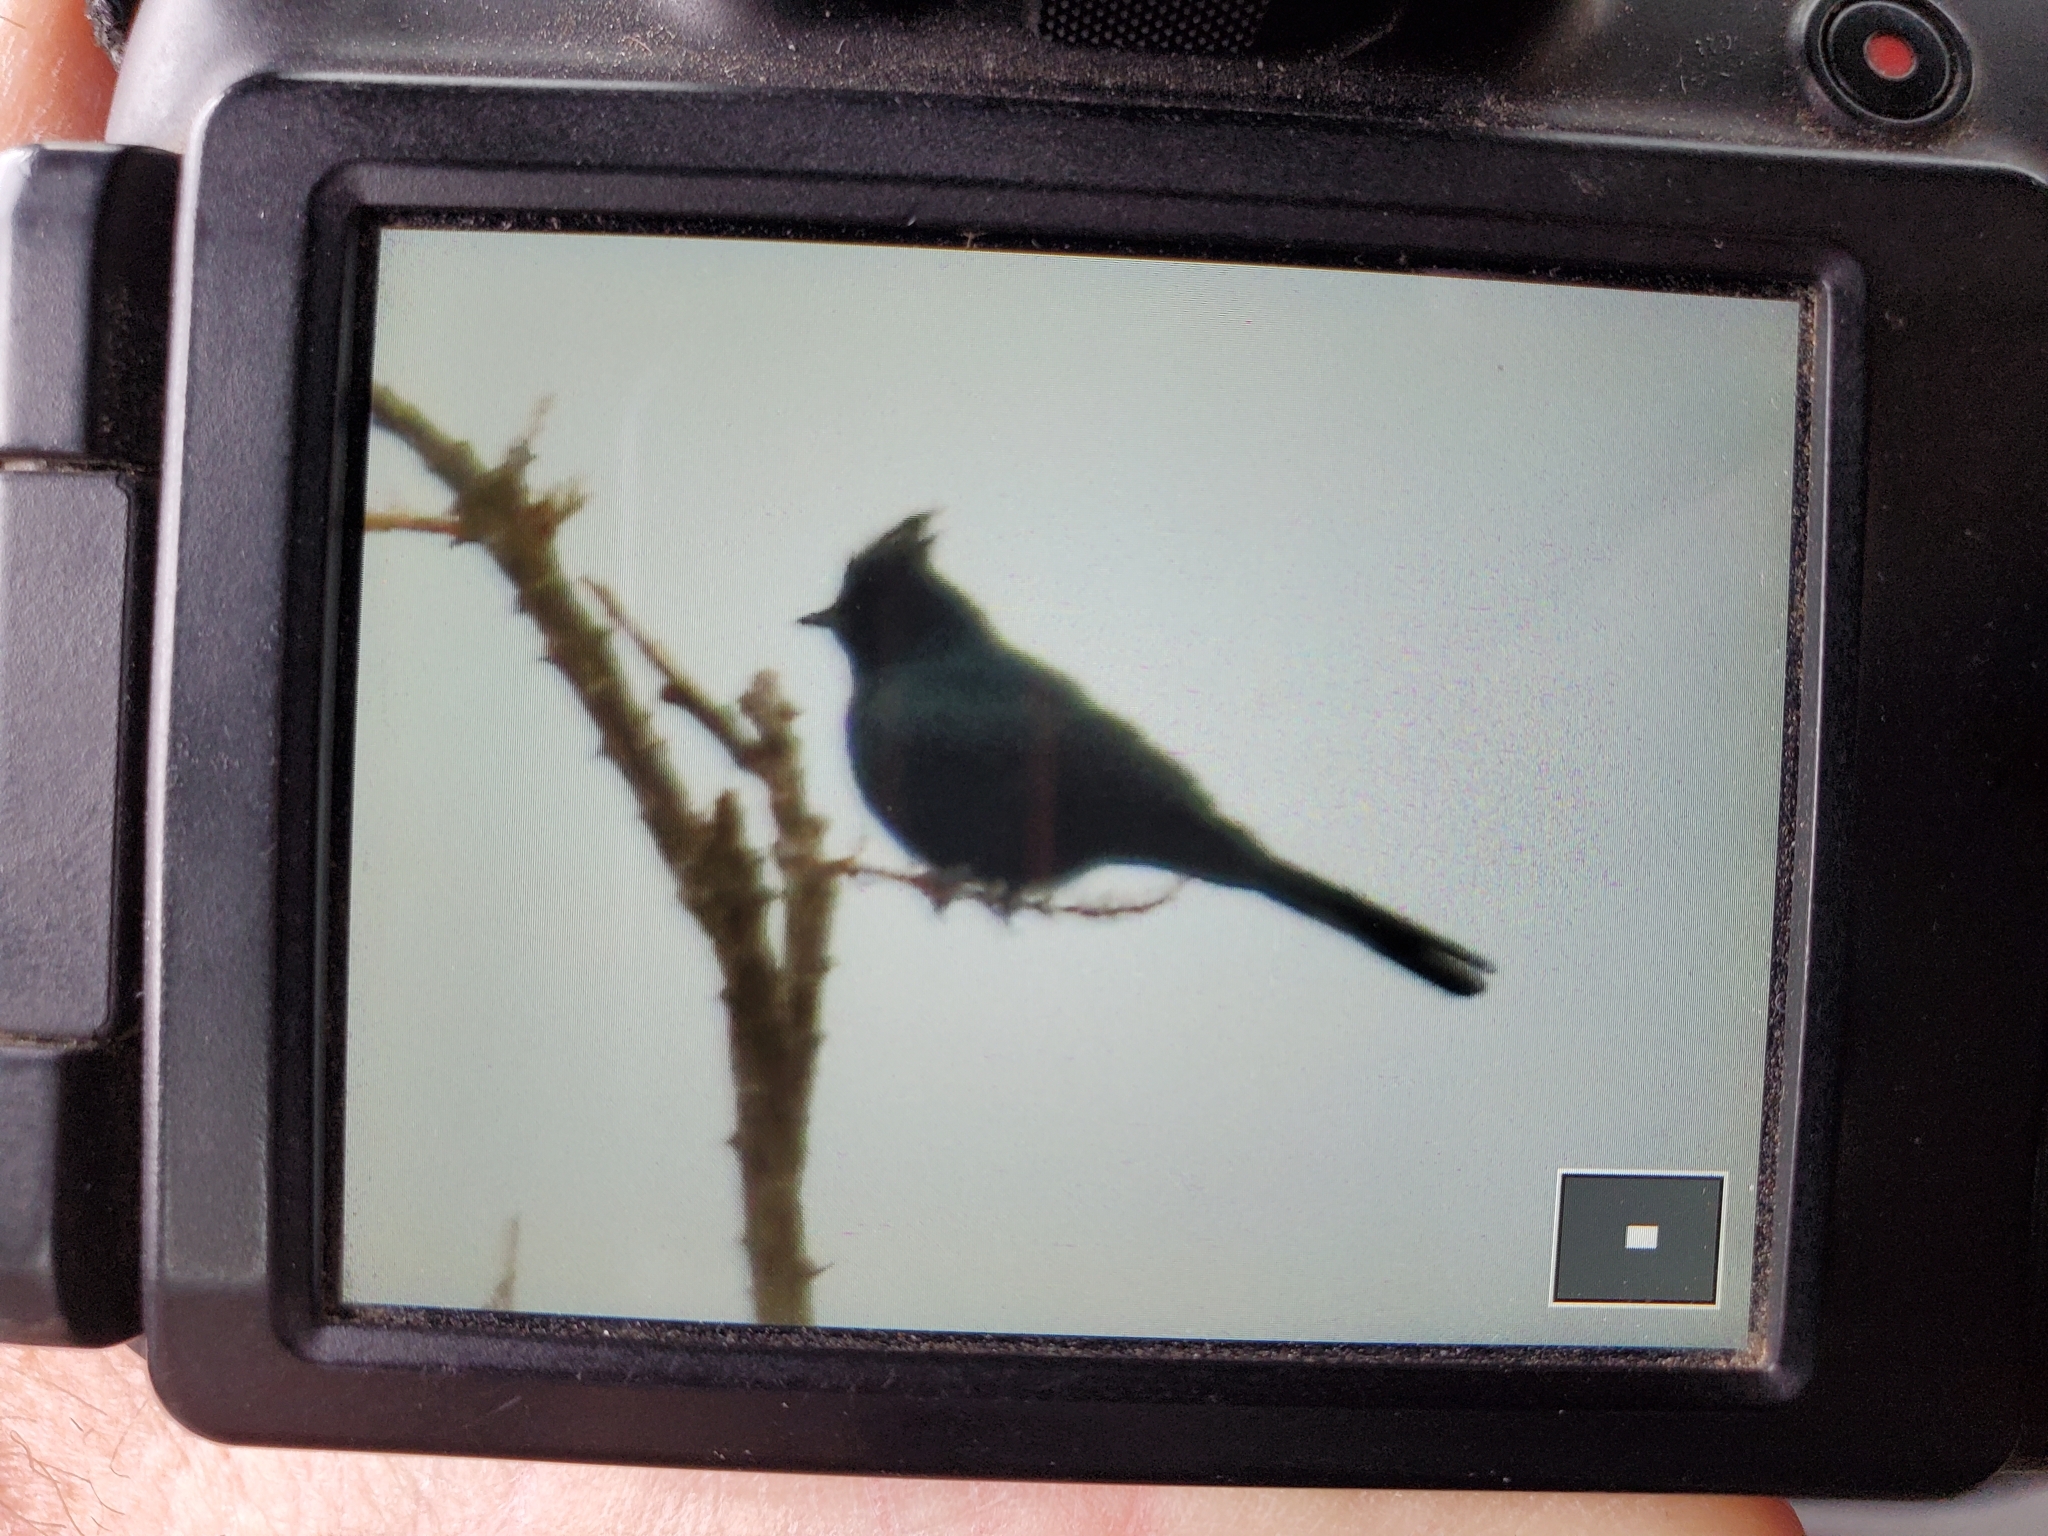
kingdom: Animalia
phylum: Chordata
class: Aves
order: Passeriformes
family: Ptilogonatidae
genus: Phainopepla
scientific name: Phainopepla nitens
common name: Phainopepla
